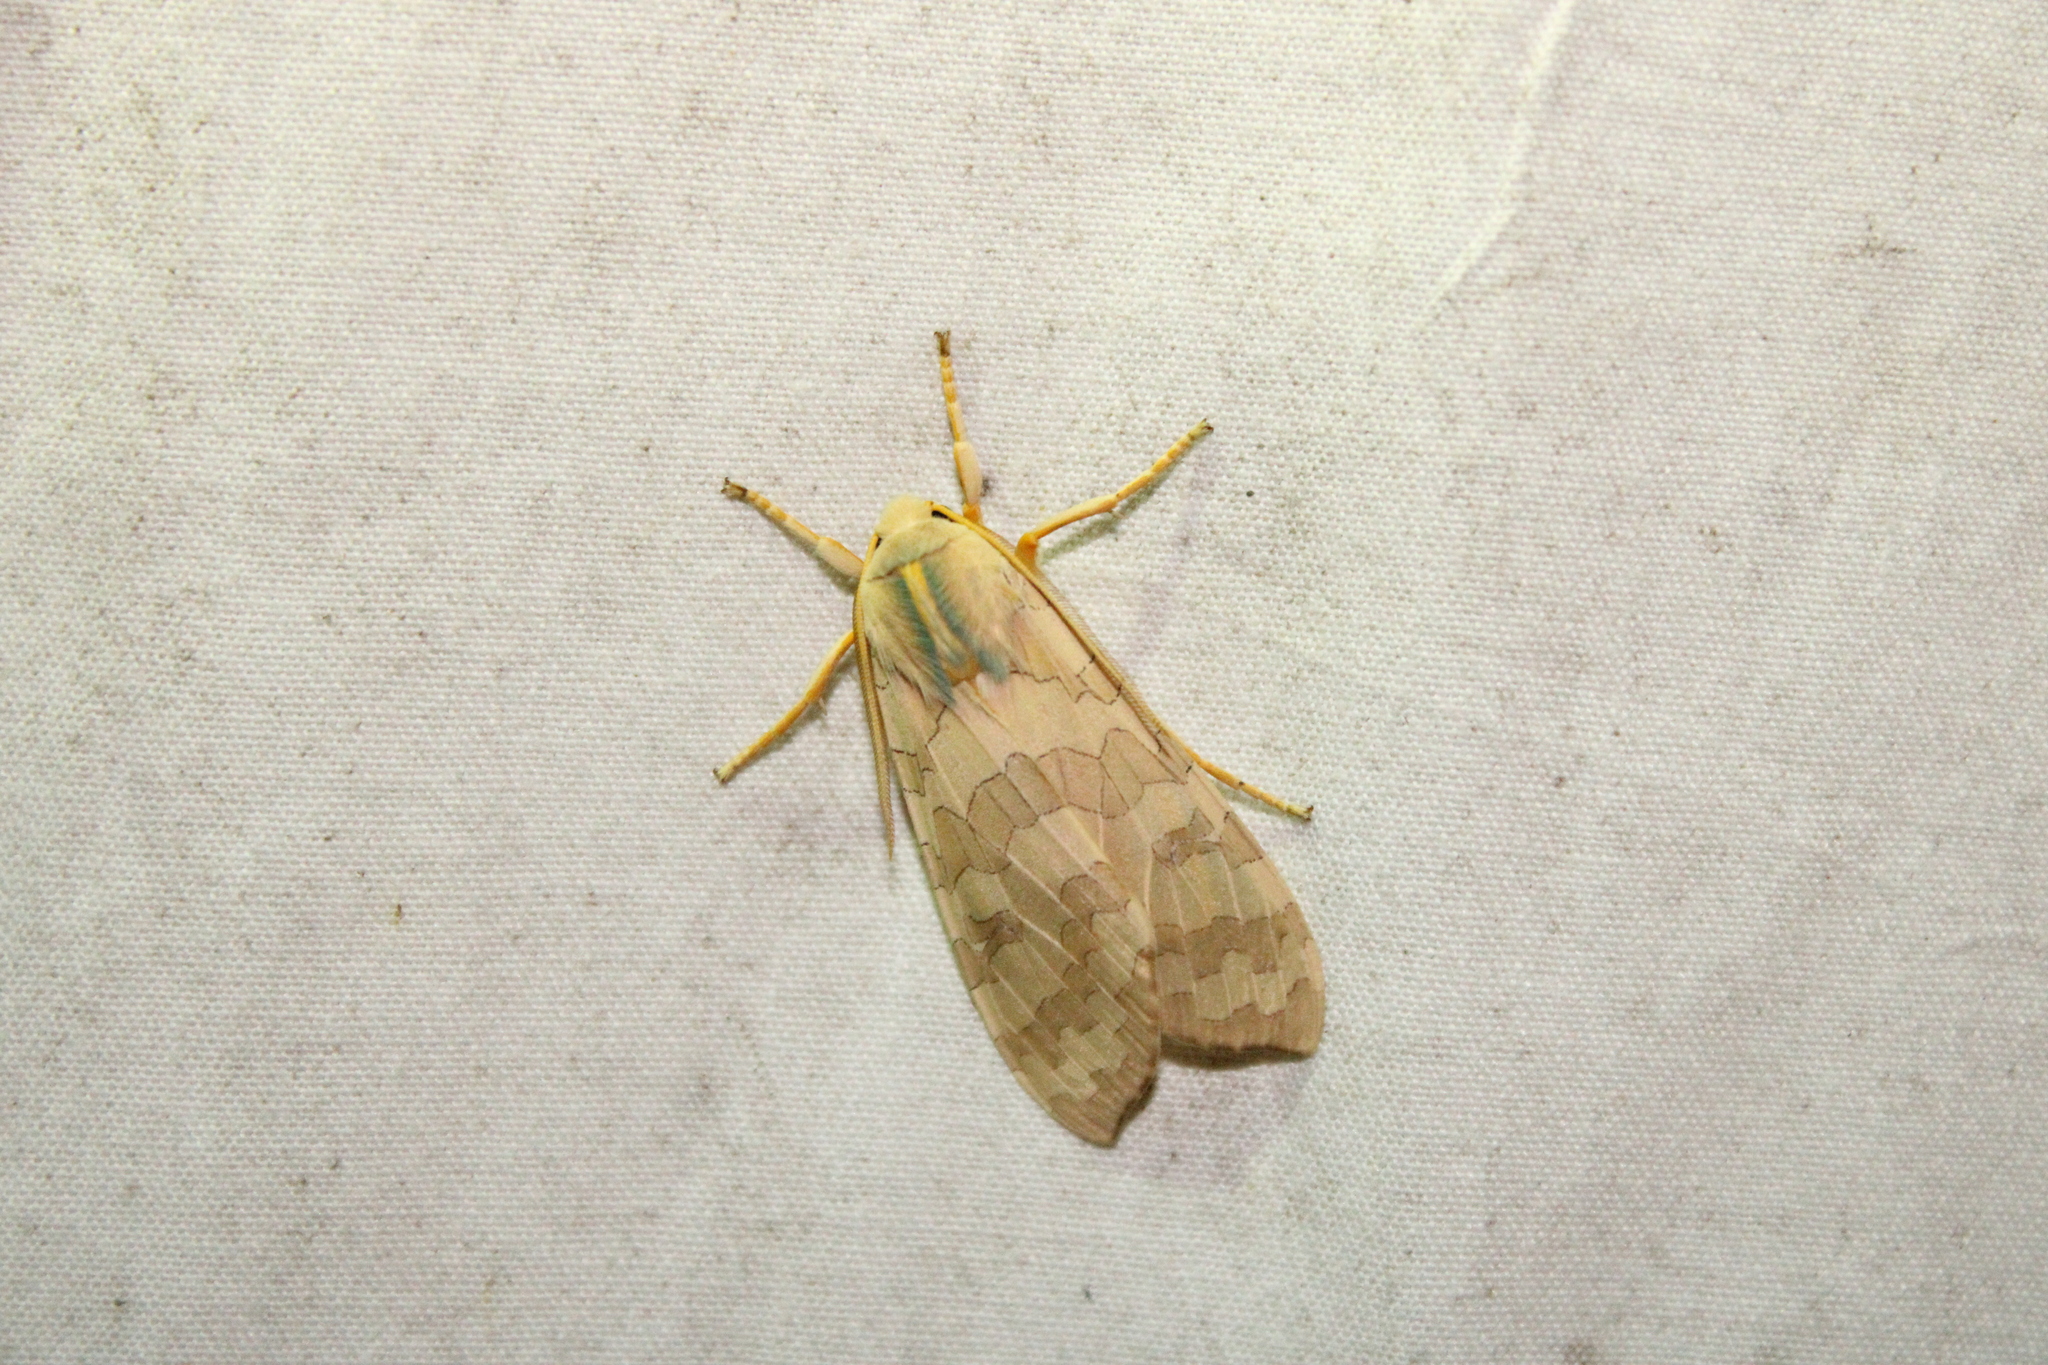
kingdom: Animalia
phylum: Arthropoda
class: Insecta
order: Lepidoptera
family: Erebidae
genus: Halysidota
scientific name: Halysidota
